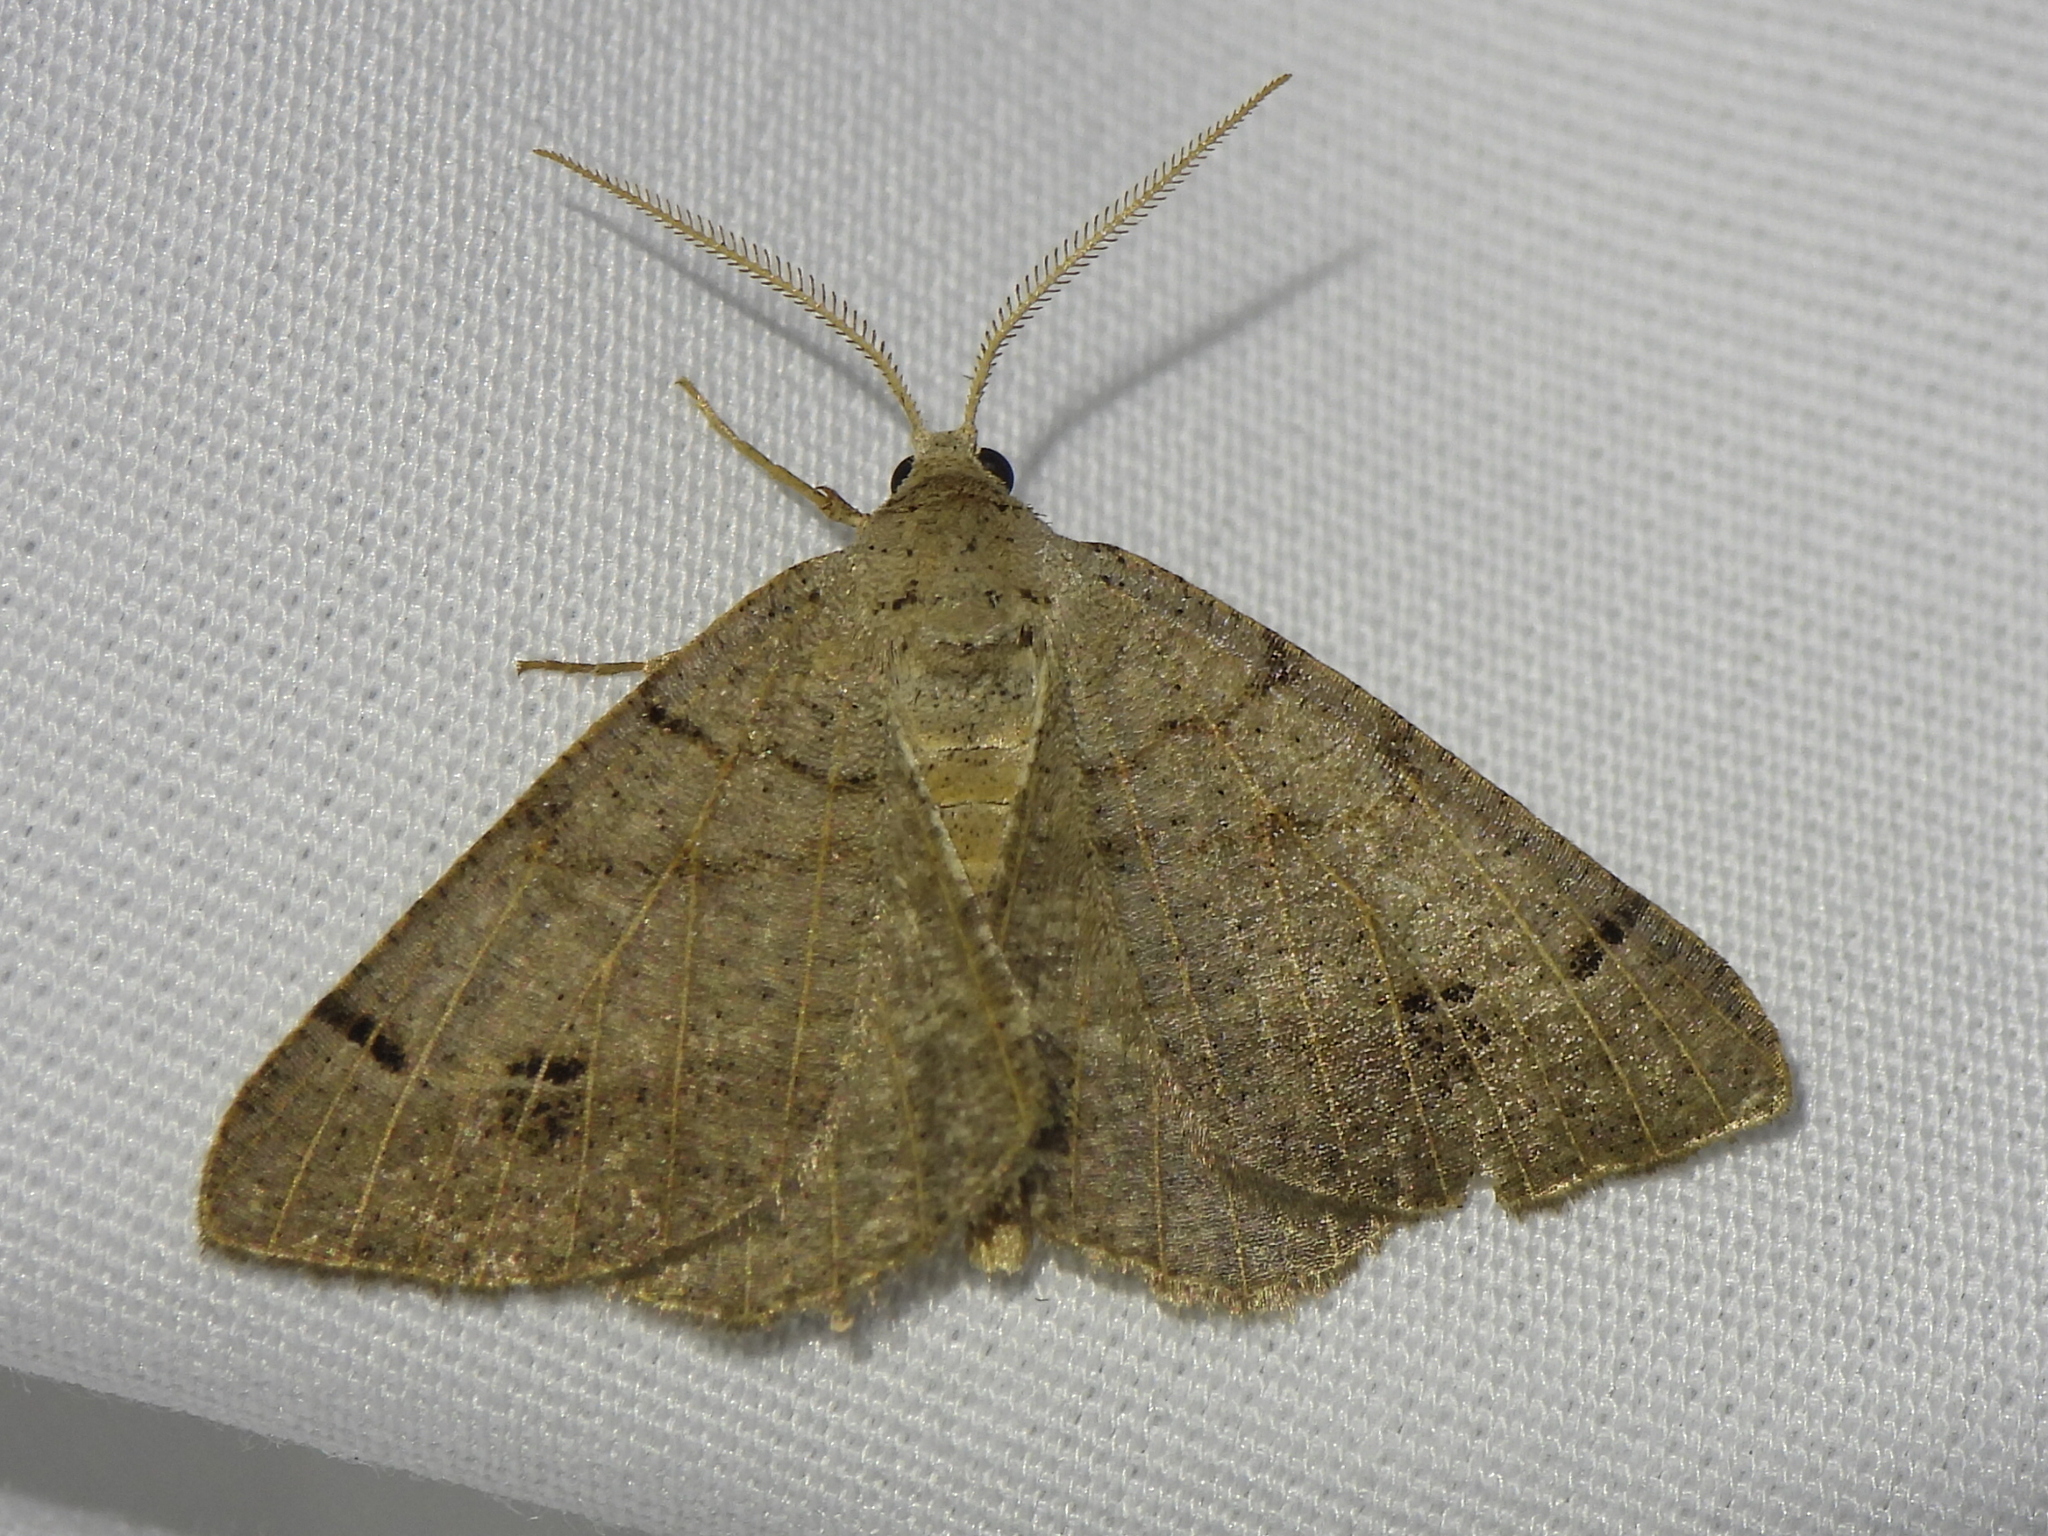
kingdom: Animalia
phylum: Arthropoda
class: Insecta
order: Lepidoptera
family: Geometridae
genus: Isturgia
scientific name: Isturgia dislocaria
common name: Pale-viened enconista
